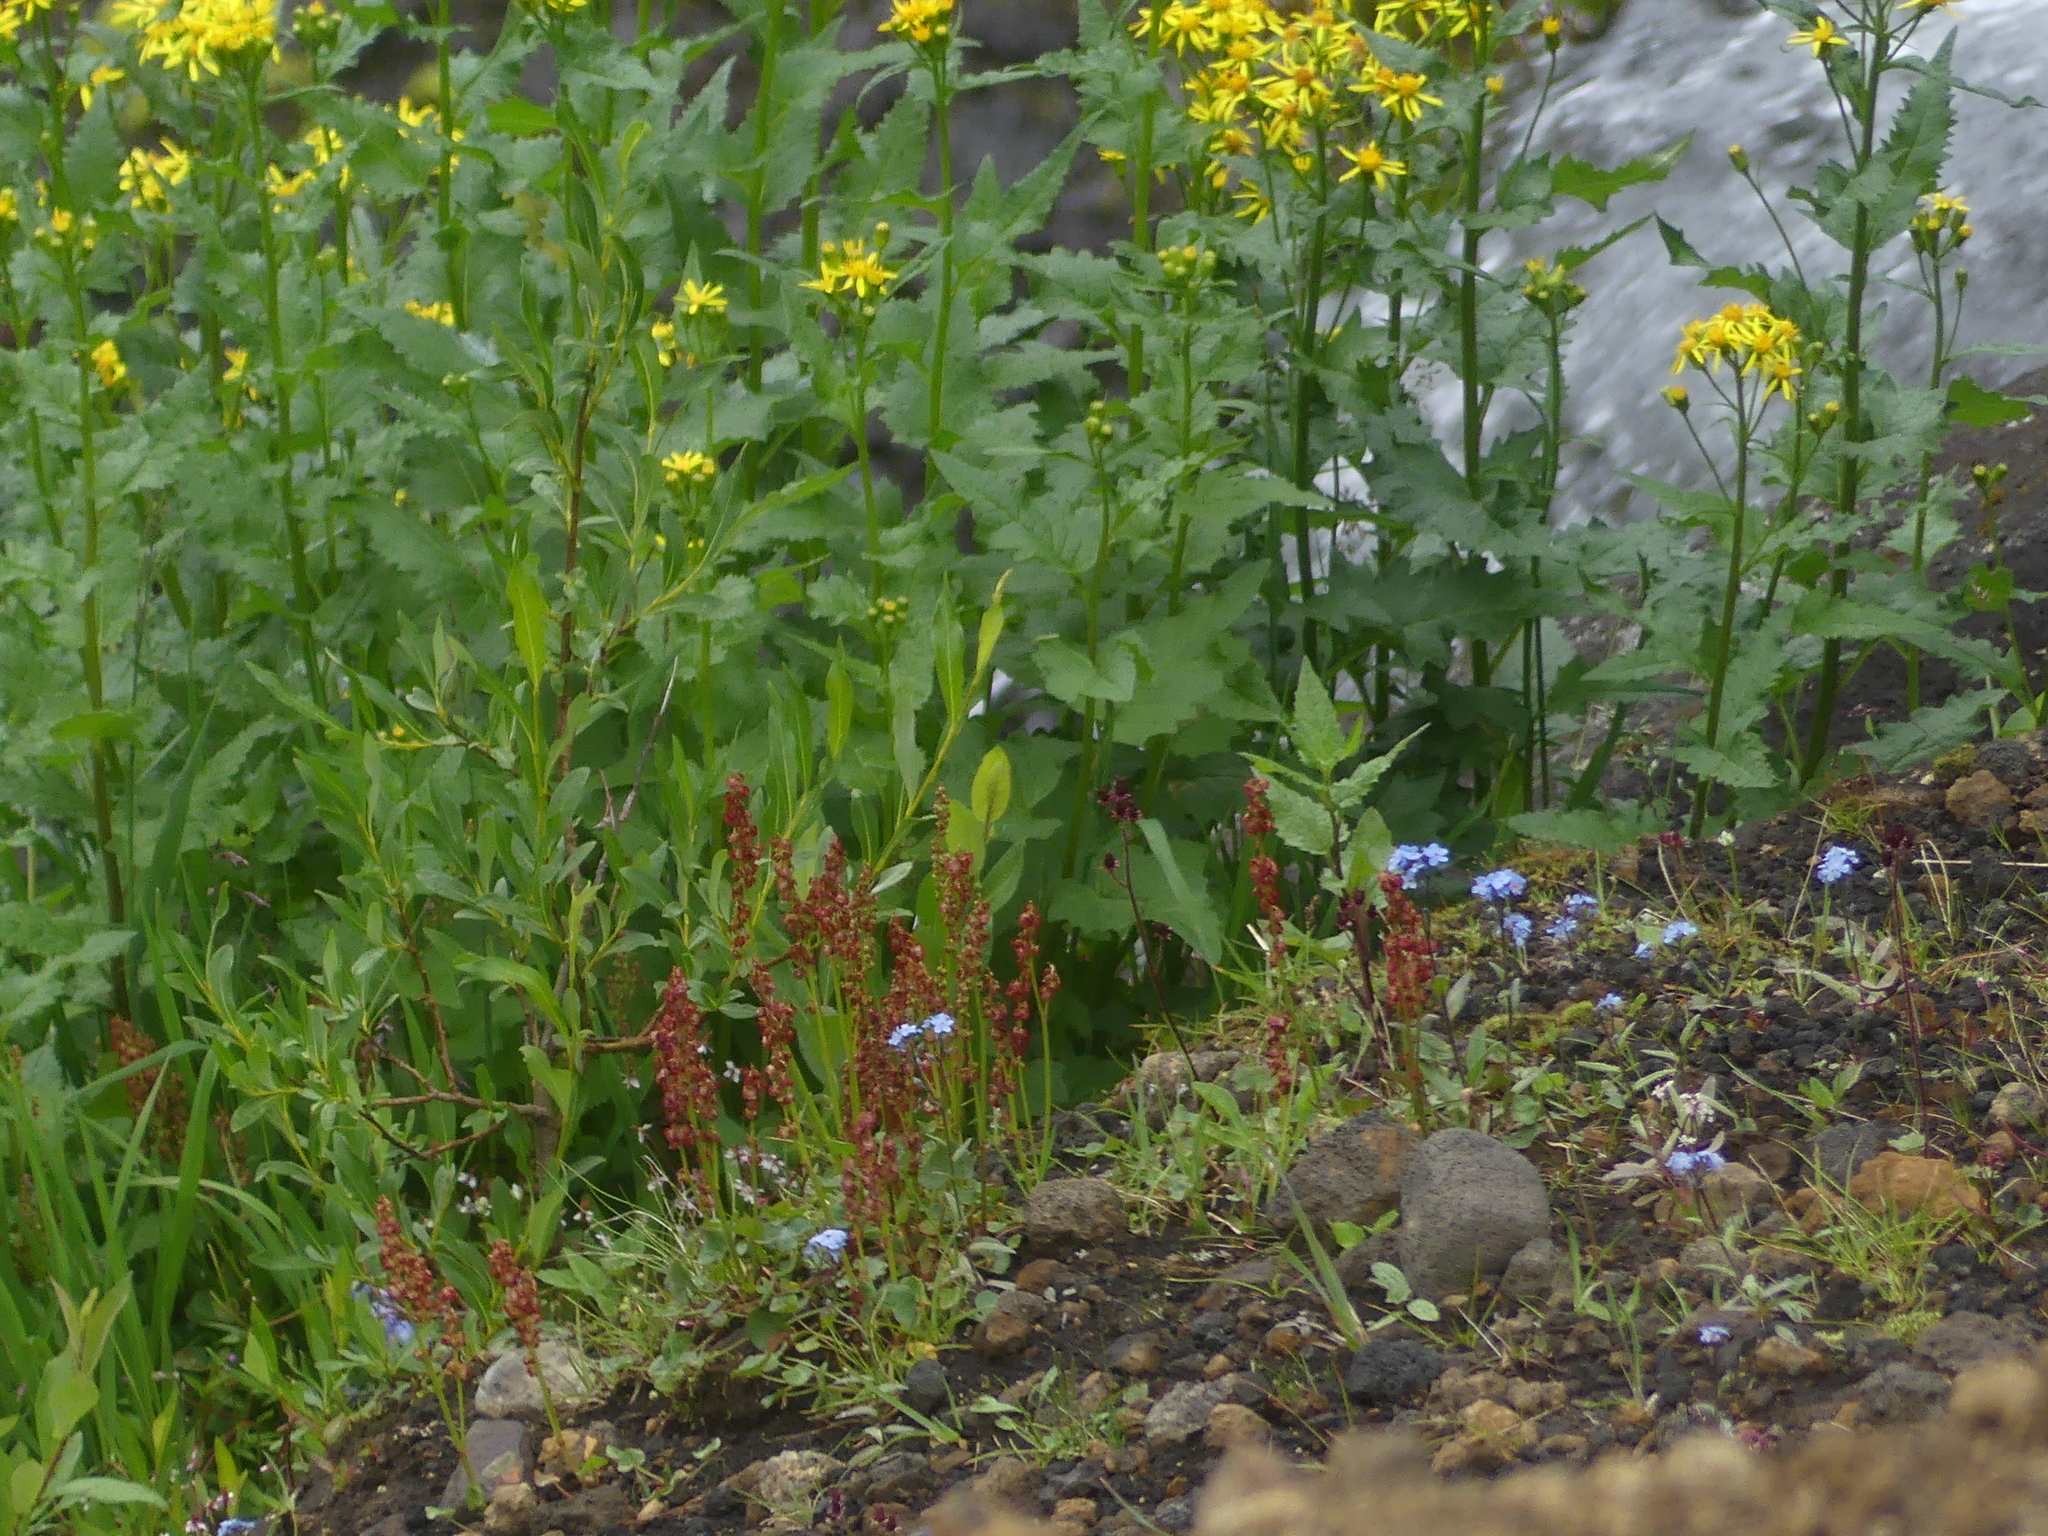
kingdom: Plantae
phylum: Tracheophyta
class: Magnoliopsida
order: Caryophyllales
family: Polygonaceae
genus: Oxyria
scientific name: Oxyria digyna
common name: Alpine mountain-sorrel
